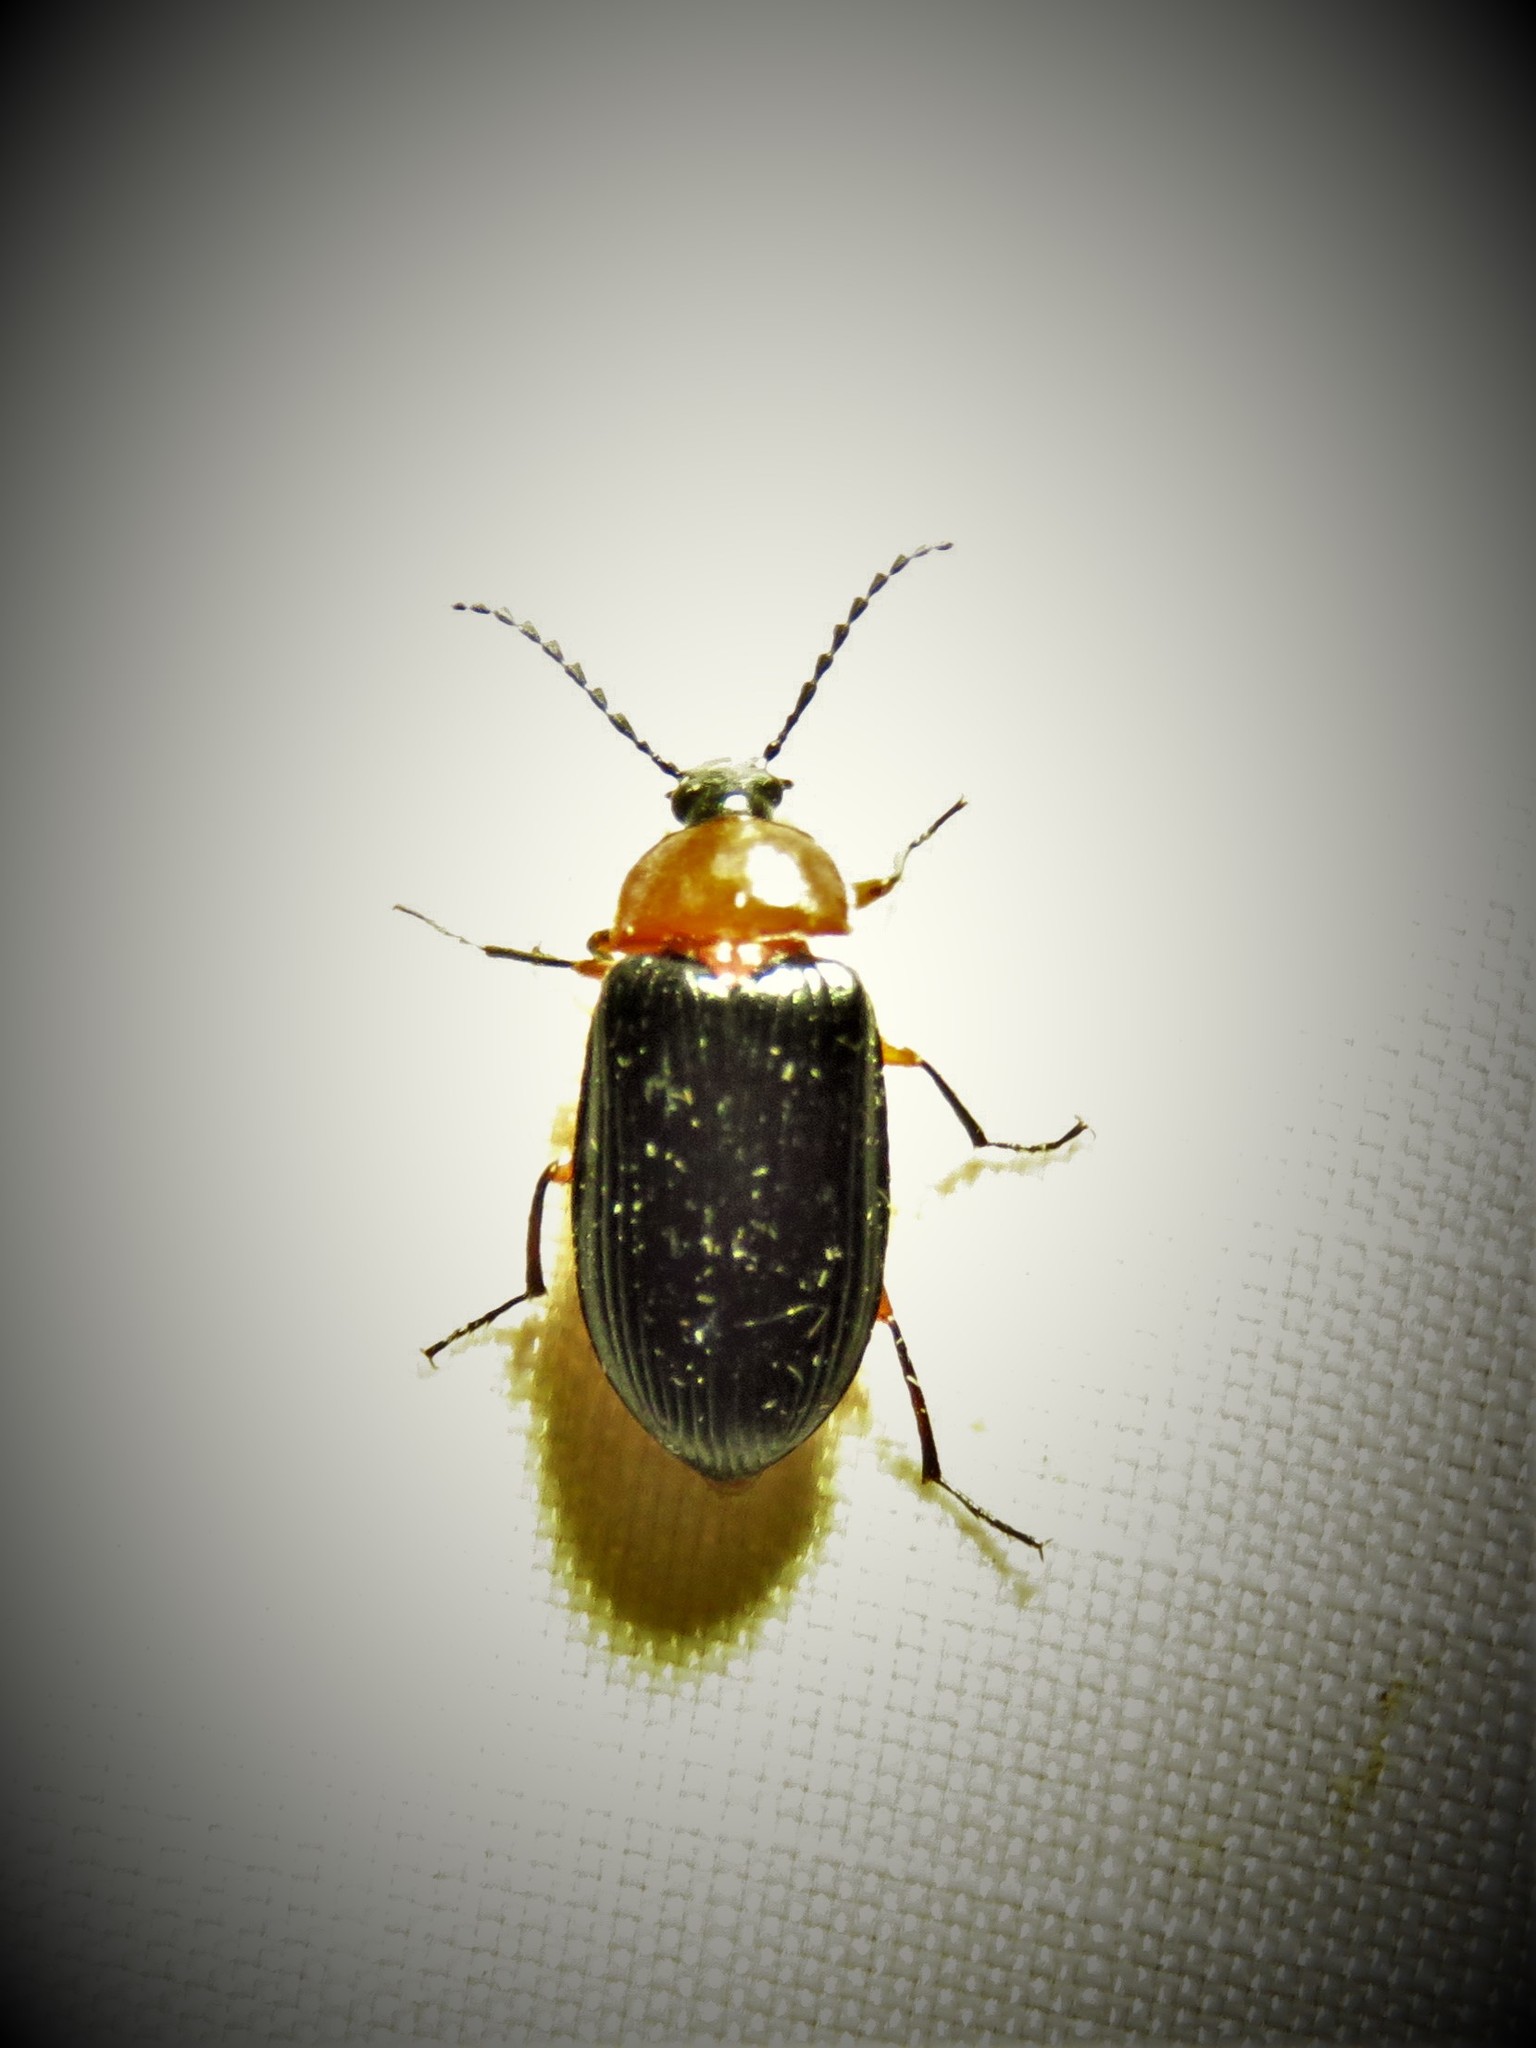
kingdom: Animalia
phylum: Arthropoda
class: Insecta
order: Coleoptera
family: Tenebrionidae
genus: Chromatia
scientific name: Chromatia amoena
